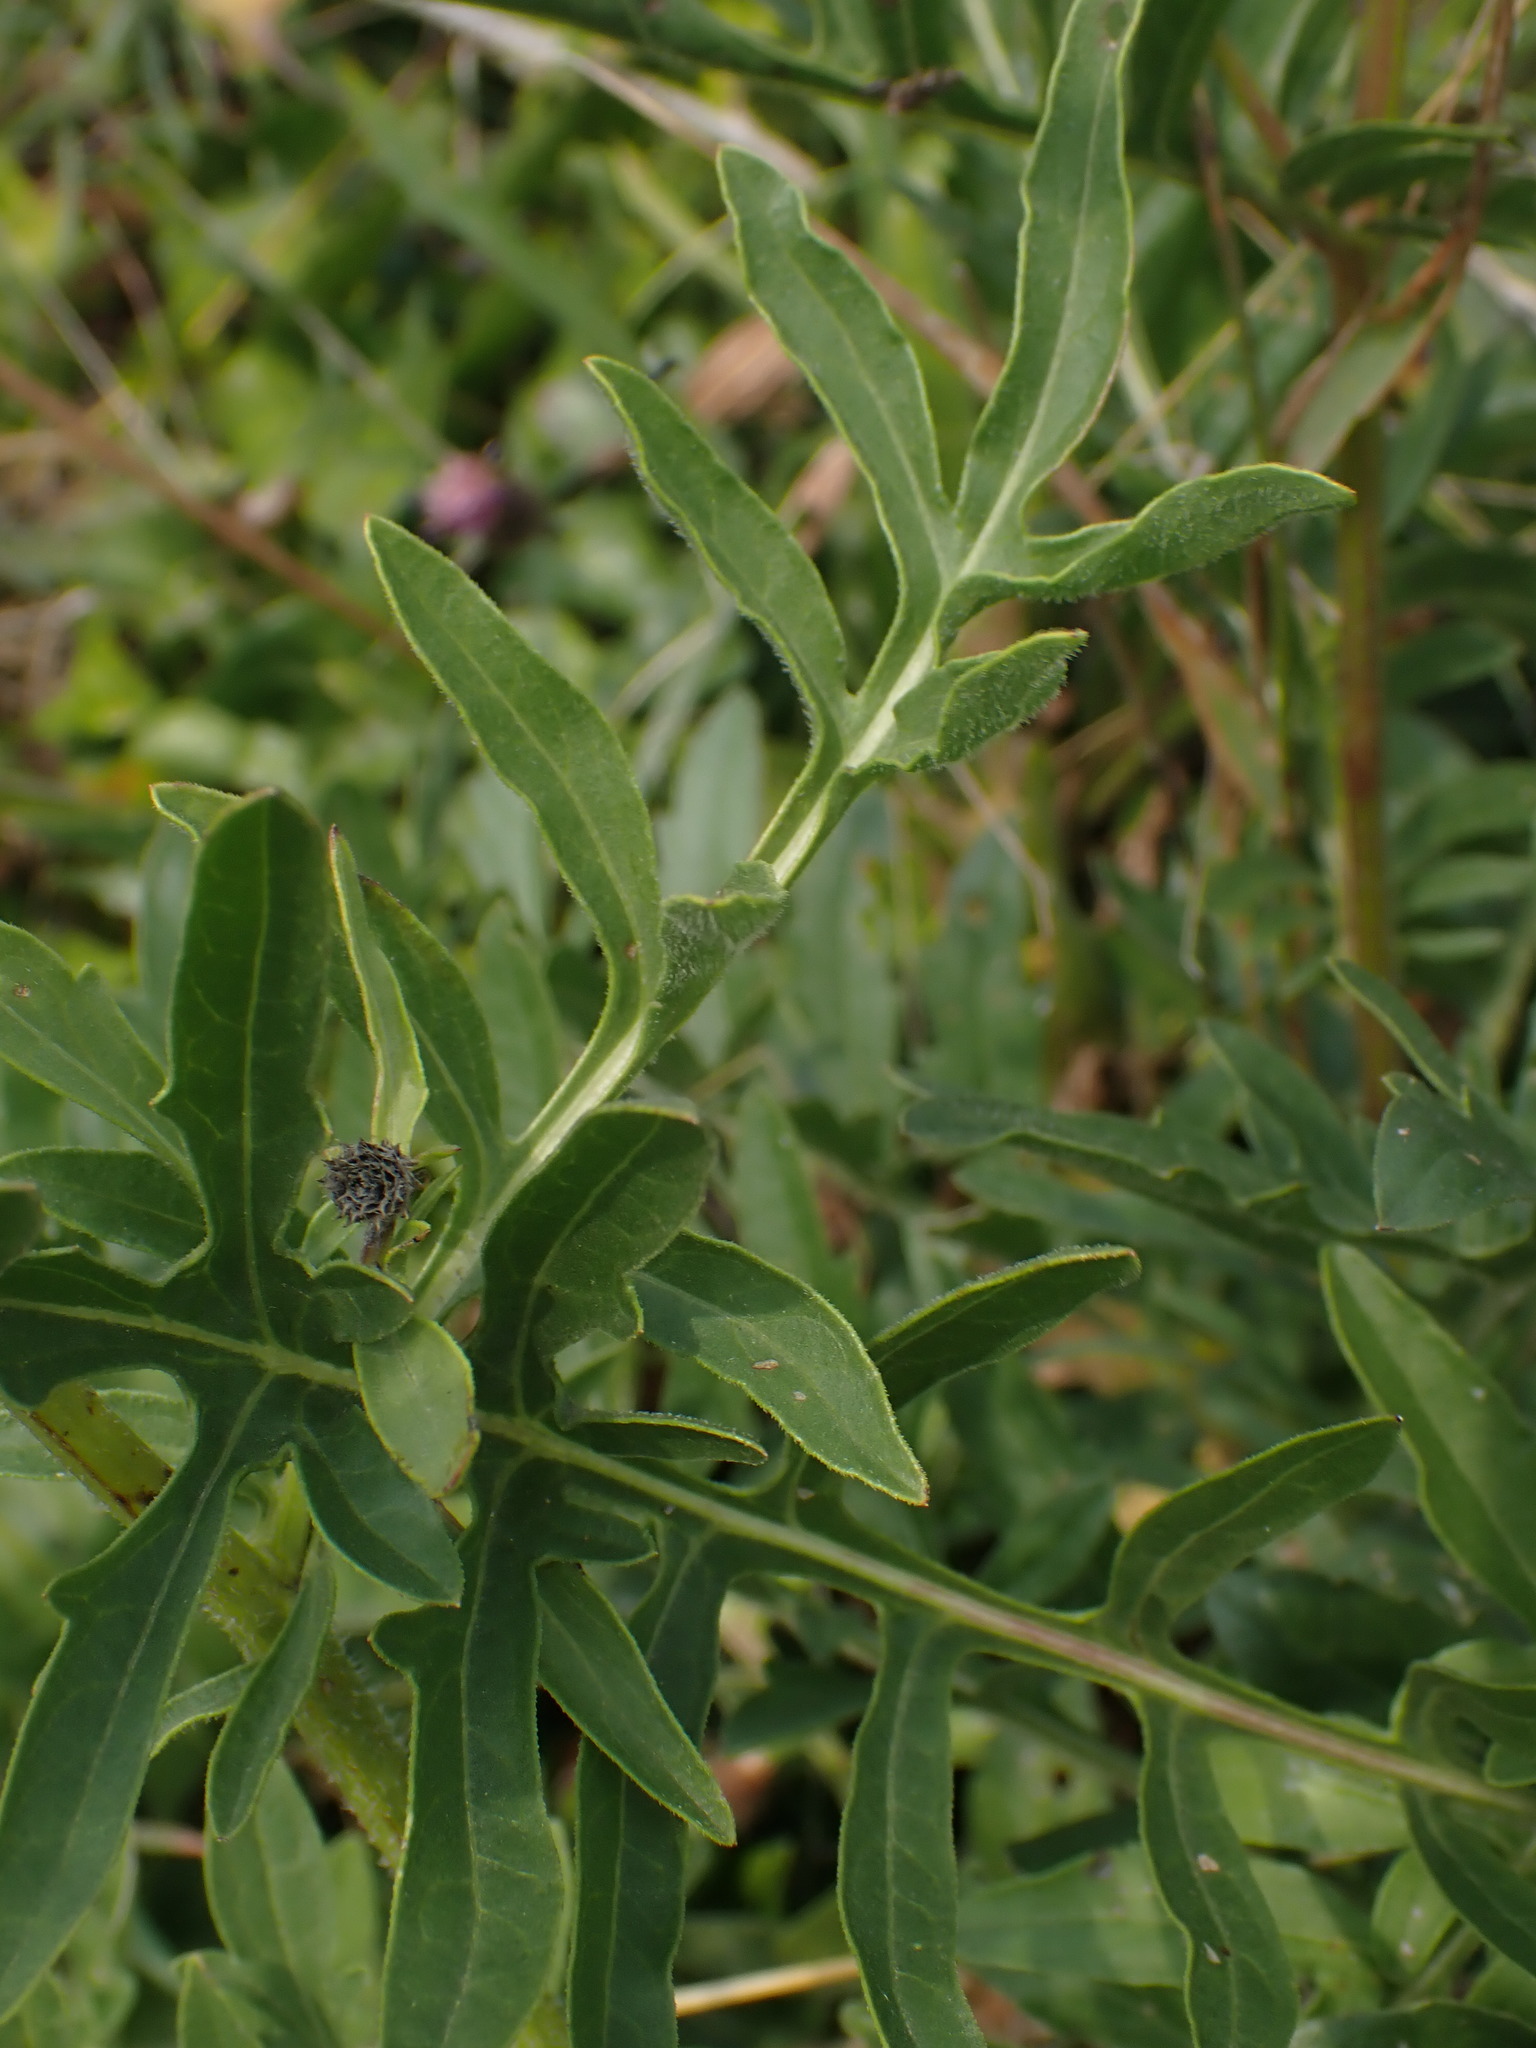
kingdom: Plantae
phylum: Tracheophyta
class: Magnoliopsida
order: Asterales
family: Asteraceae
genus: Centaurea
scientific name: Centaurea scabiosa
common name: Greater knapweed
